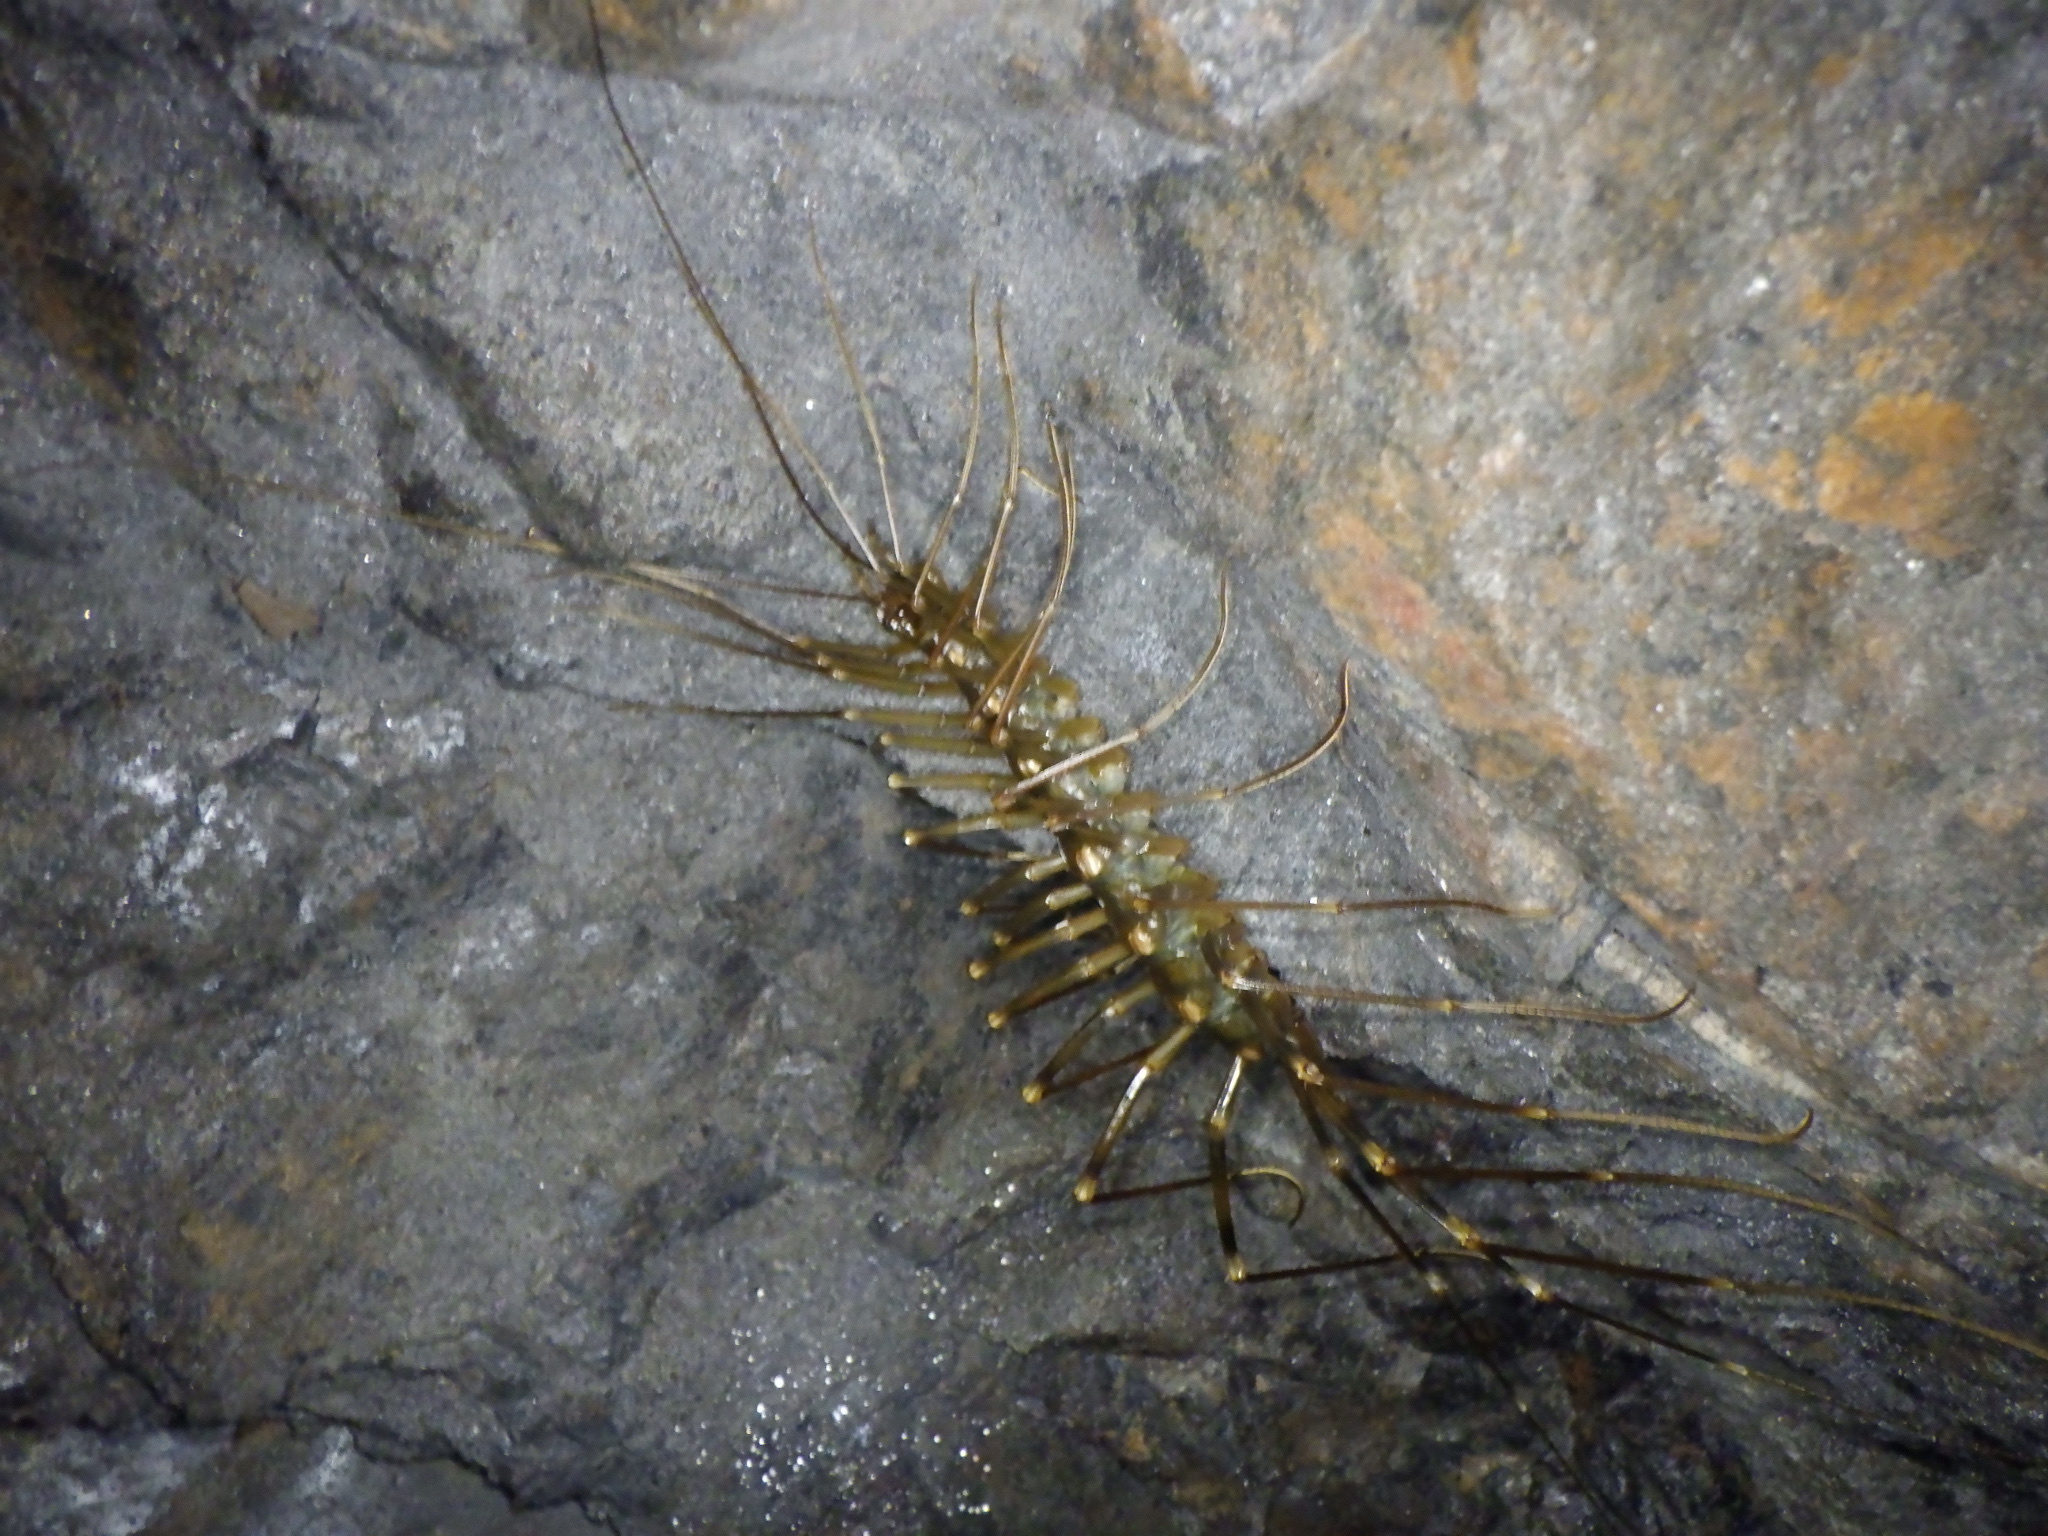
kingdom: Animalia
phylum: Arthropoda
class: Chilopoda
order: Scutigeromorpha
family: Scutigeridae
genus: Thereuopoda
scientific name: Thereuopoda clunifera
